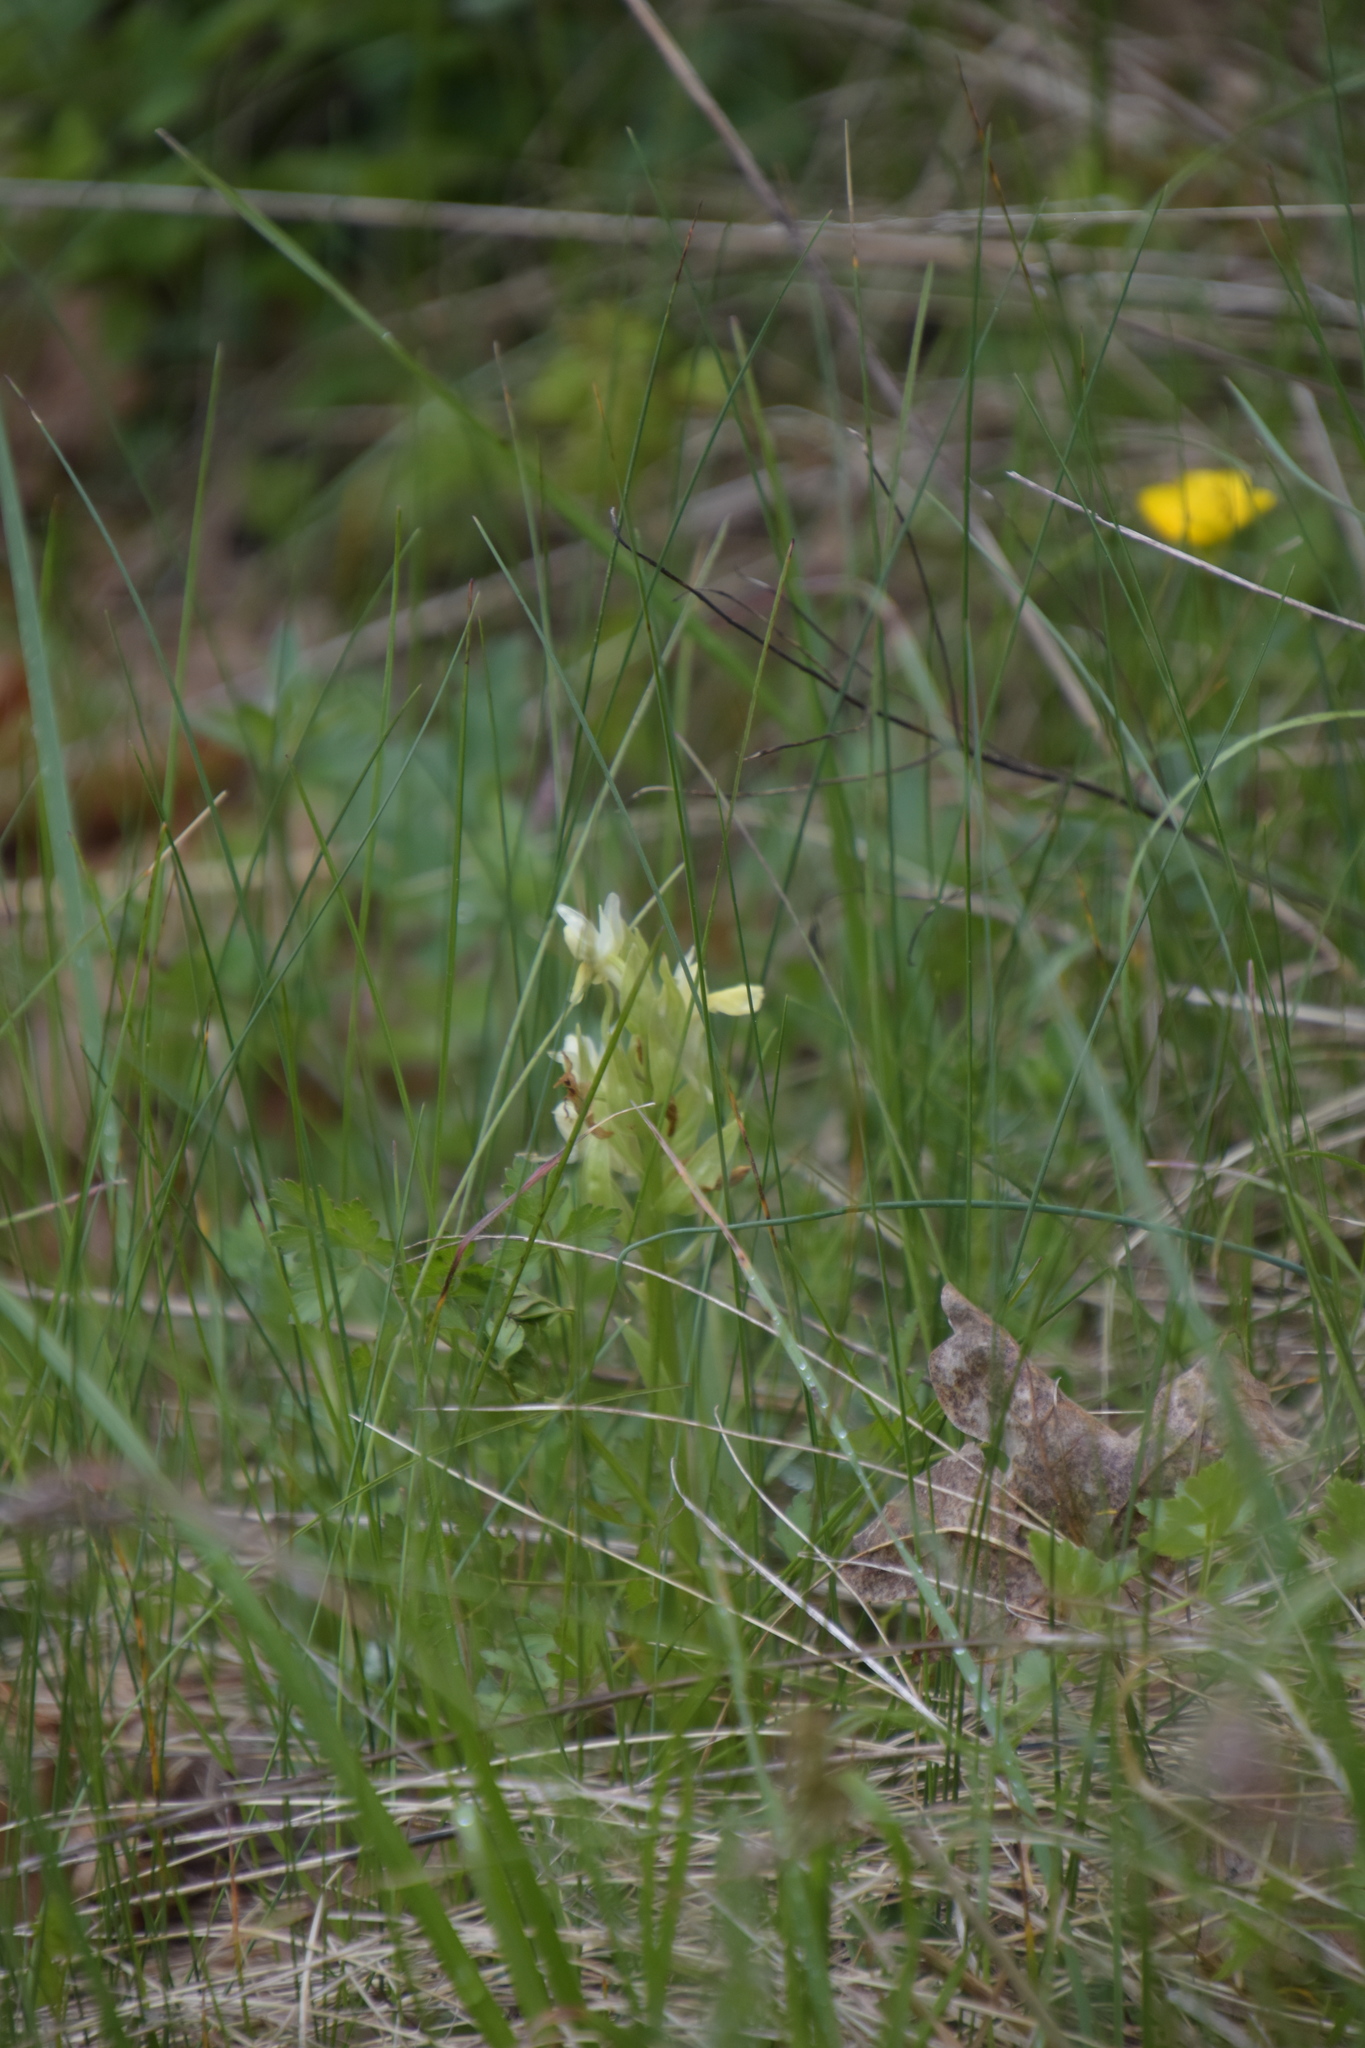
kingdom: Plantae
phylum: Tracheophyta
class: Liliopsida
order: Asparagales
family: Orchidaceae
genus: Dactylorhiza
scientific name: Dactylorhiza sambucina
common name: Elder-flowered orchid
